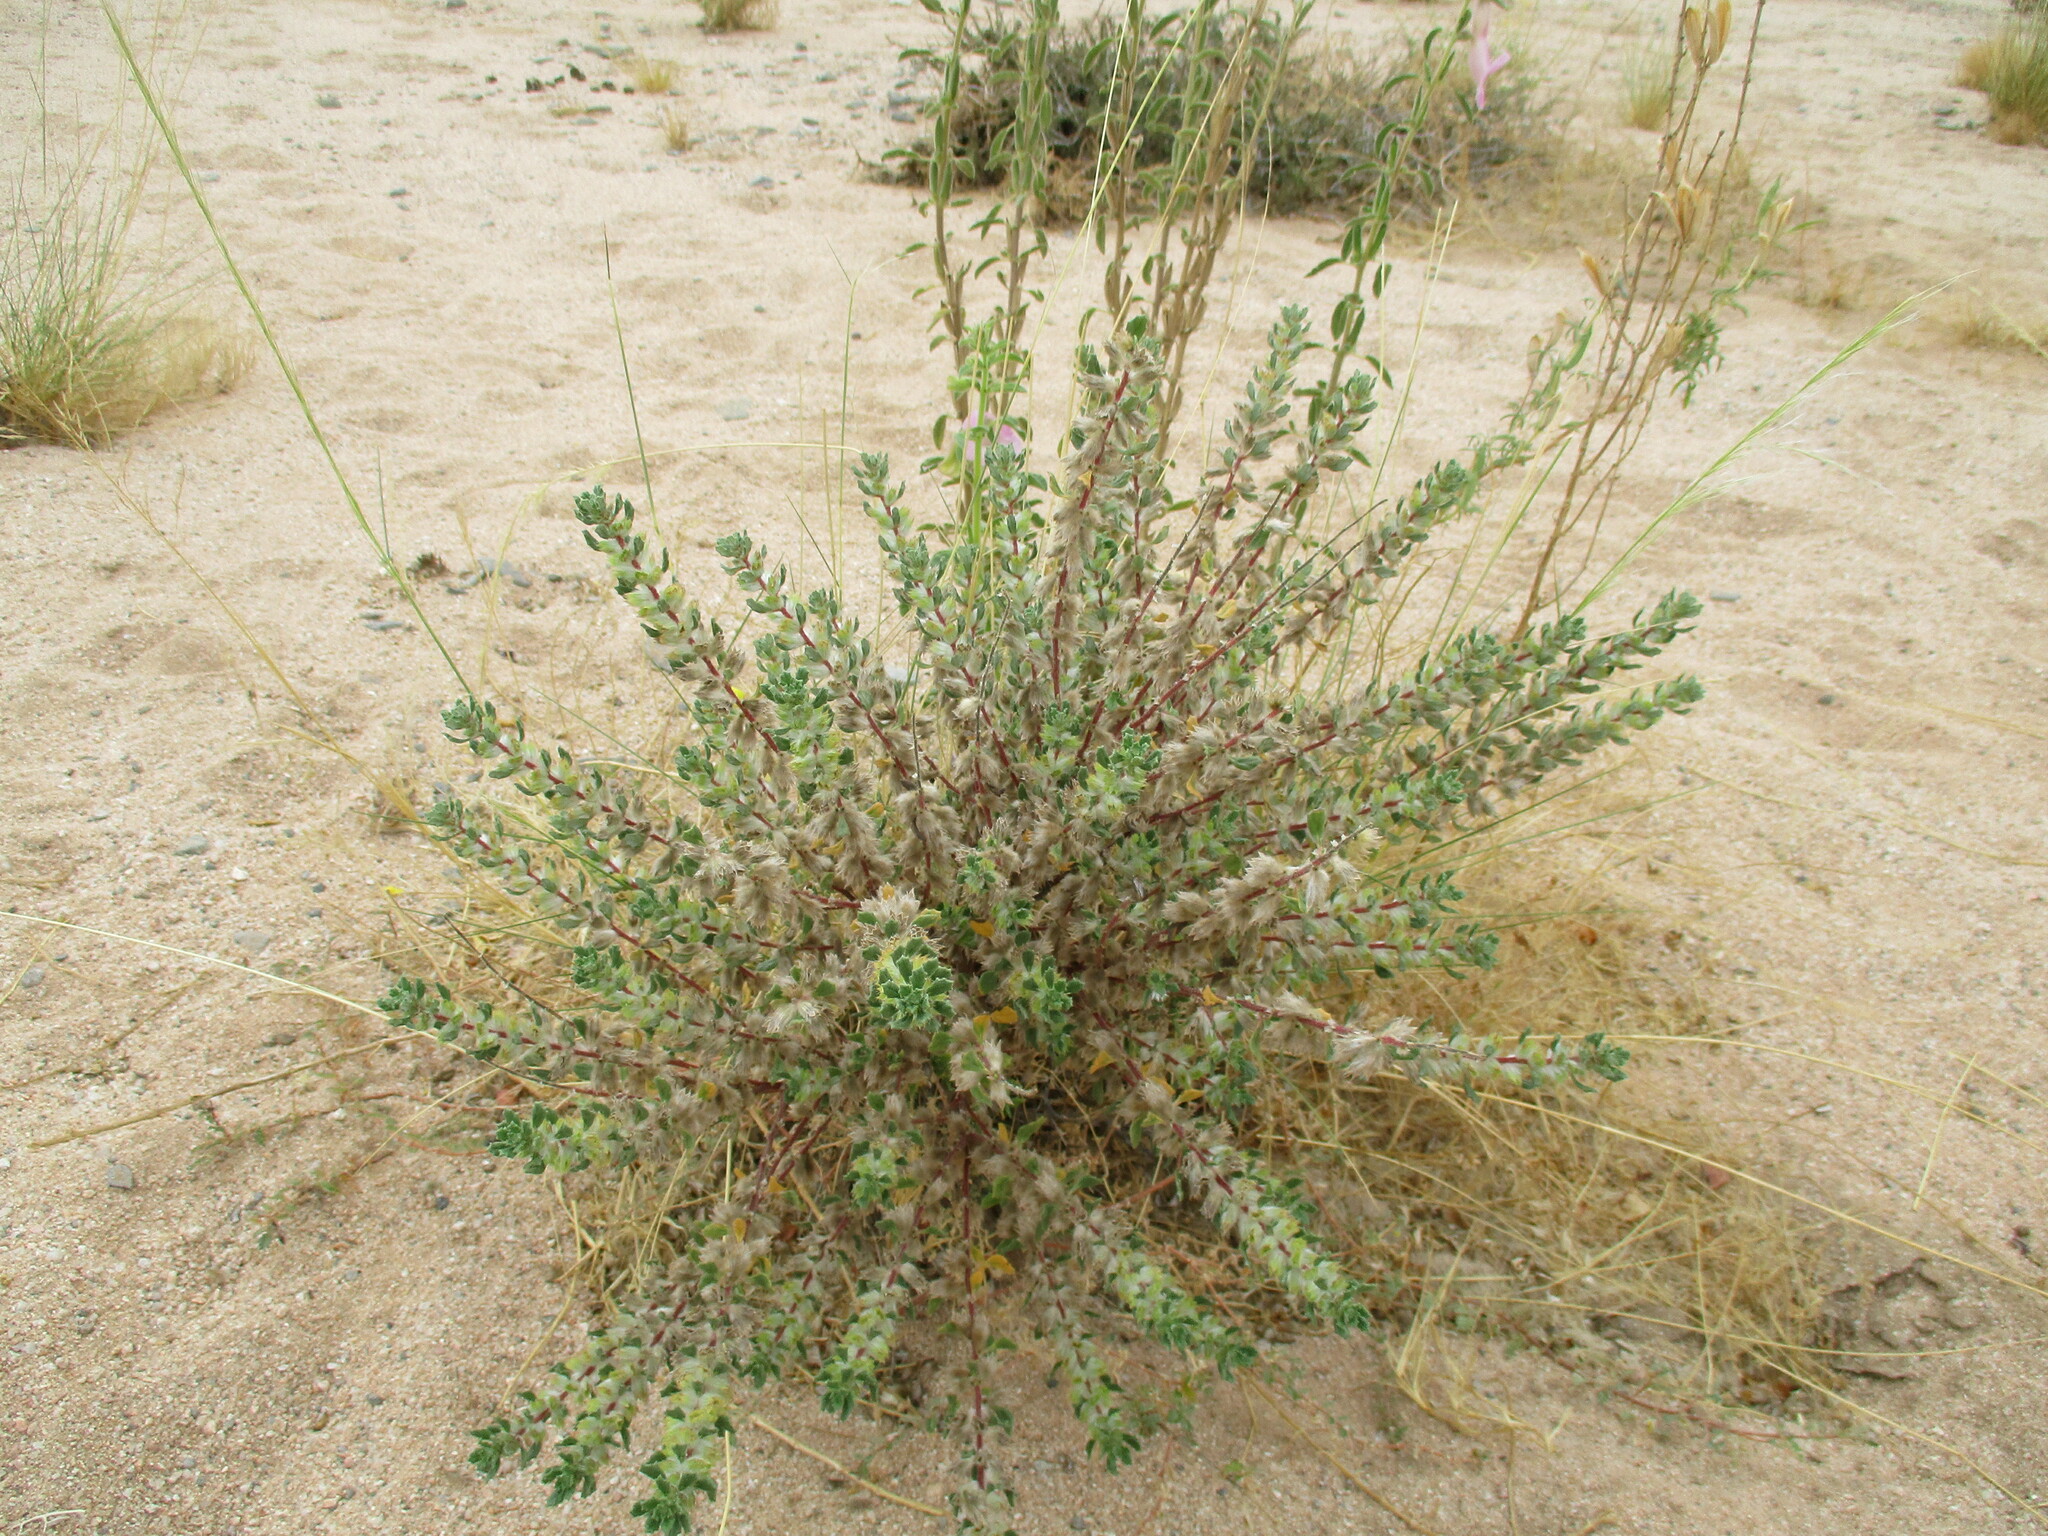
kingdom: Plantae
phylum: Tracheophyta
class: Magnoliopsida
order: Rosales
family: Urticaceae
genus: Forsskaolea
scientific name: Forsskaolea hereroensis
